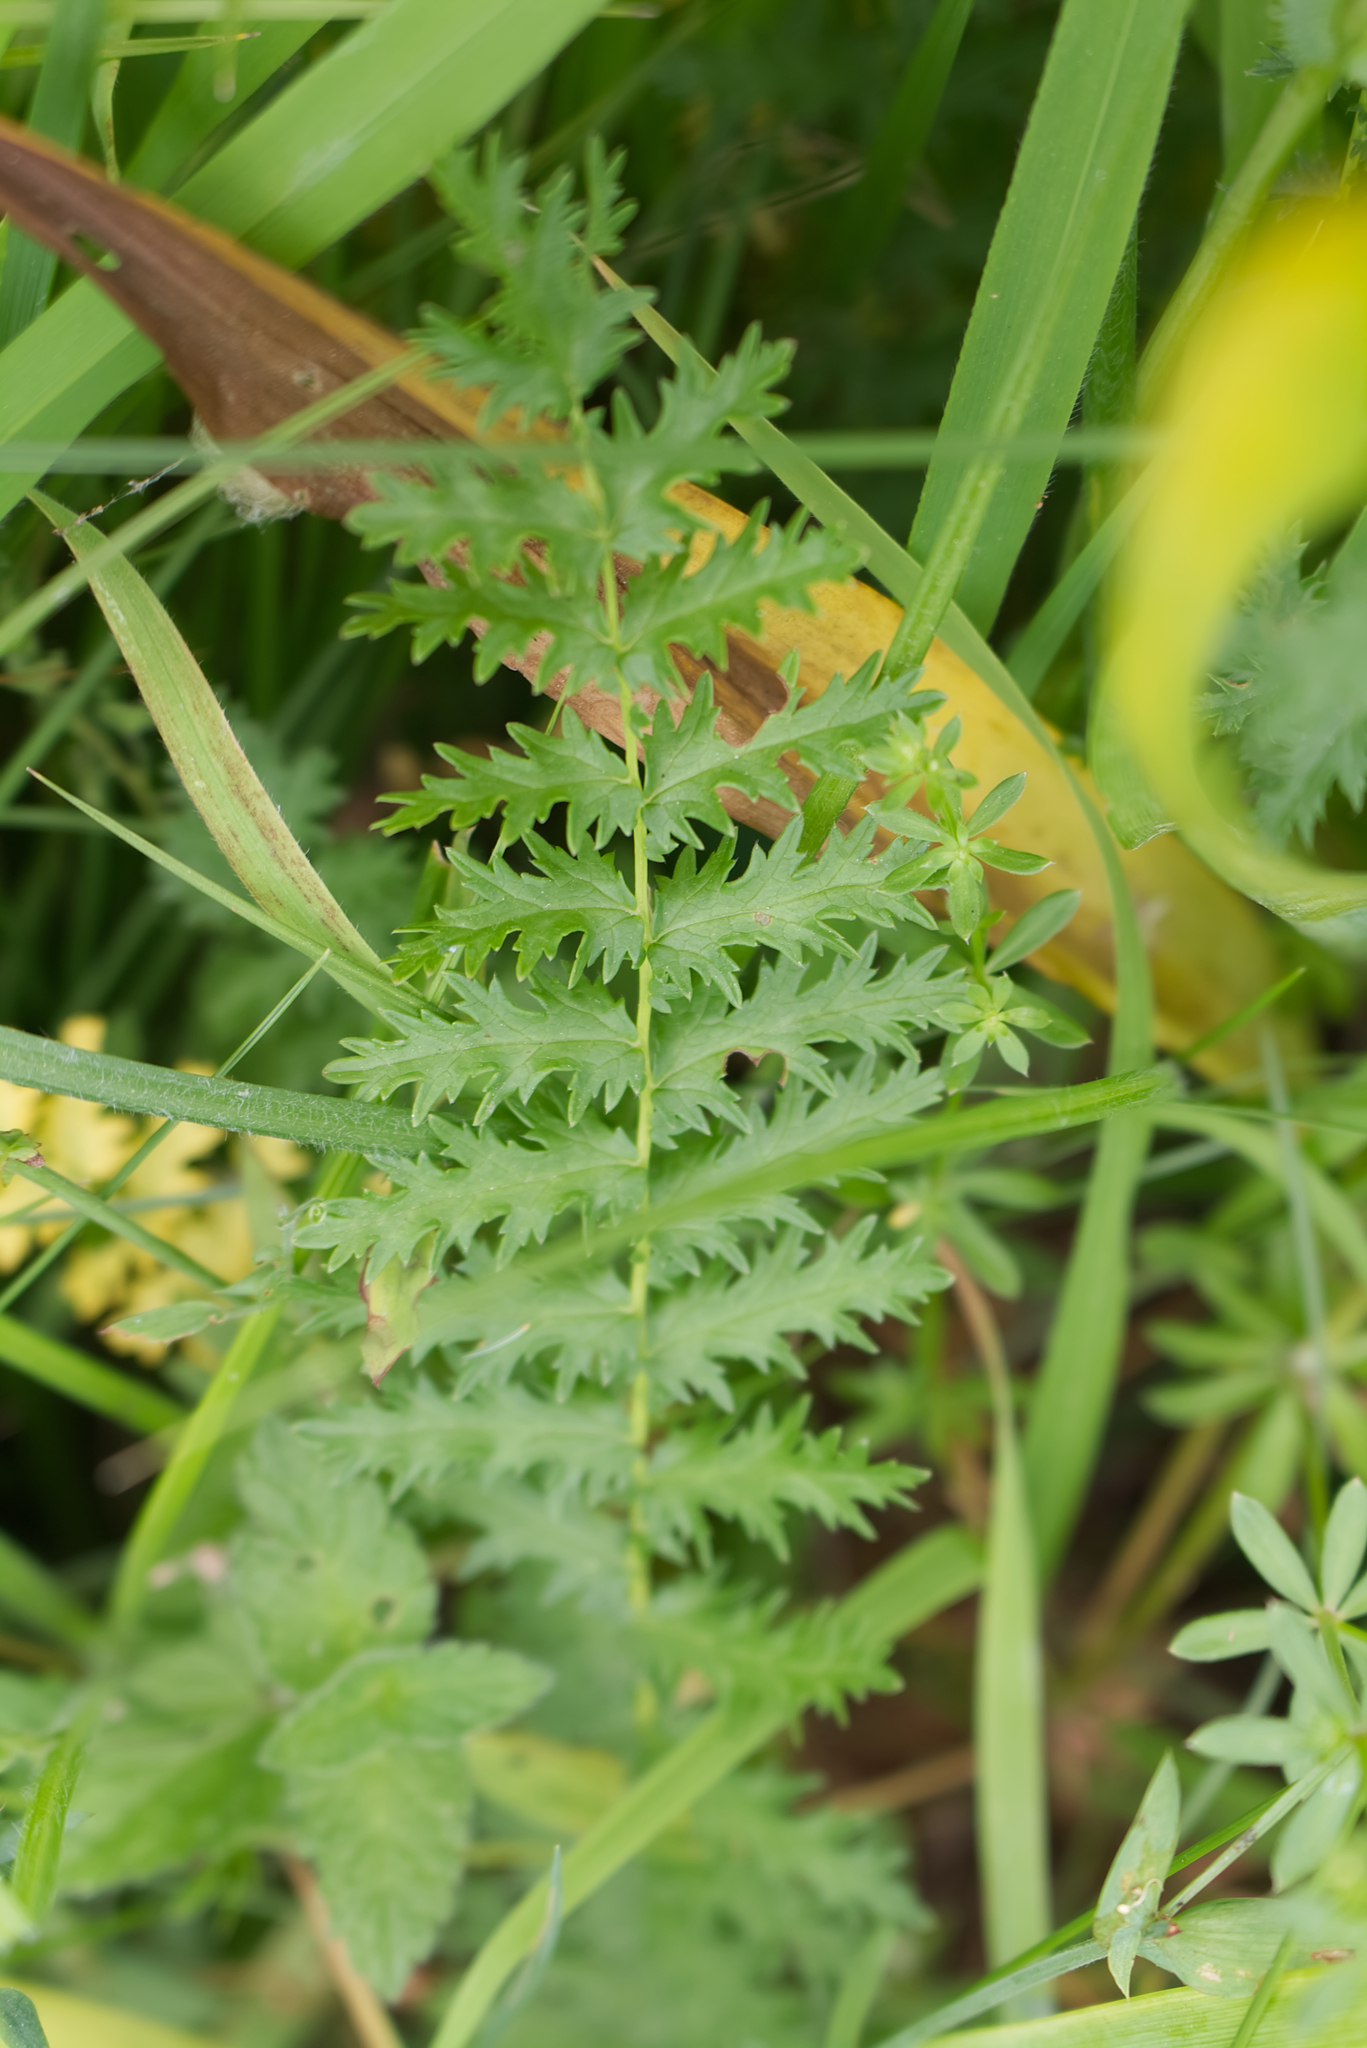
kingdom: Plantae
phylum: Tracheophyta
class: Magnoliopsida
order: Rosales
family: Rosaceae
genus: Filipendula
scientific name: Filipendula vulgaris
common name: Dropwort
